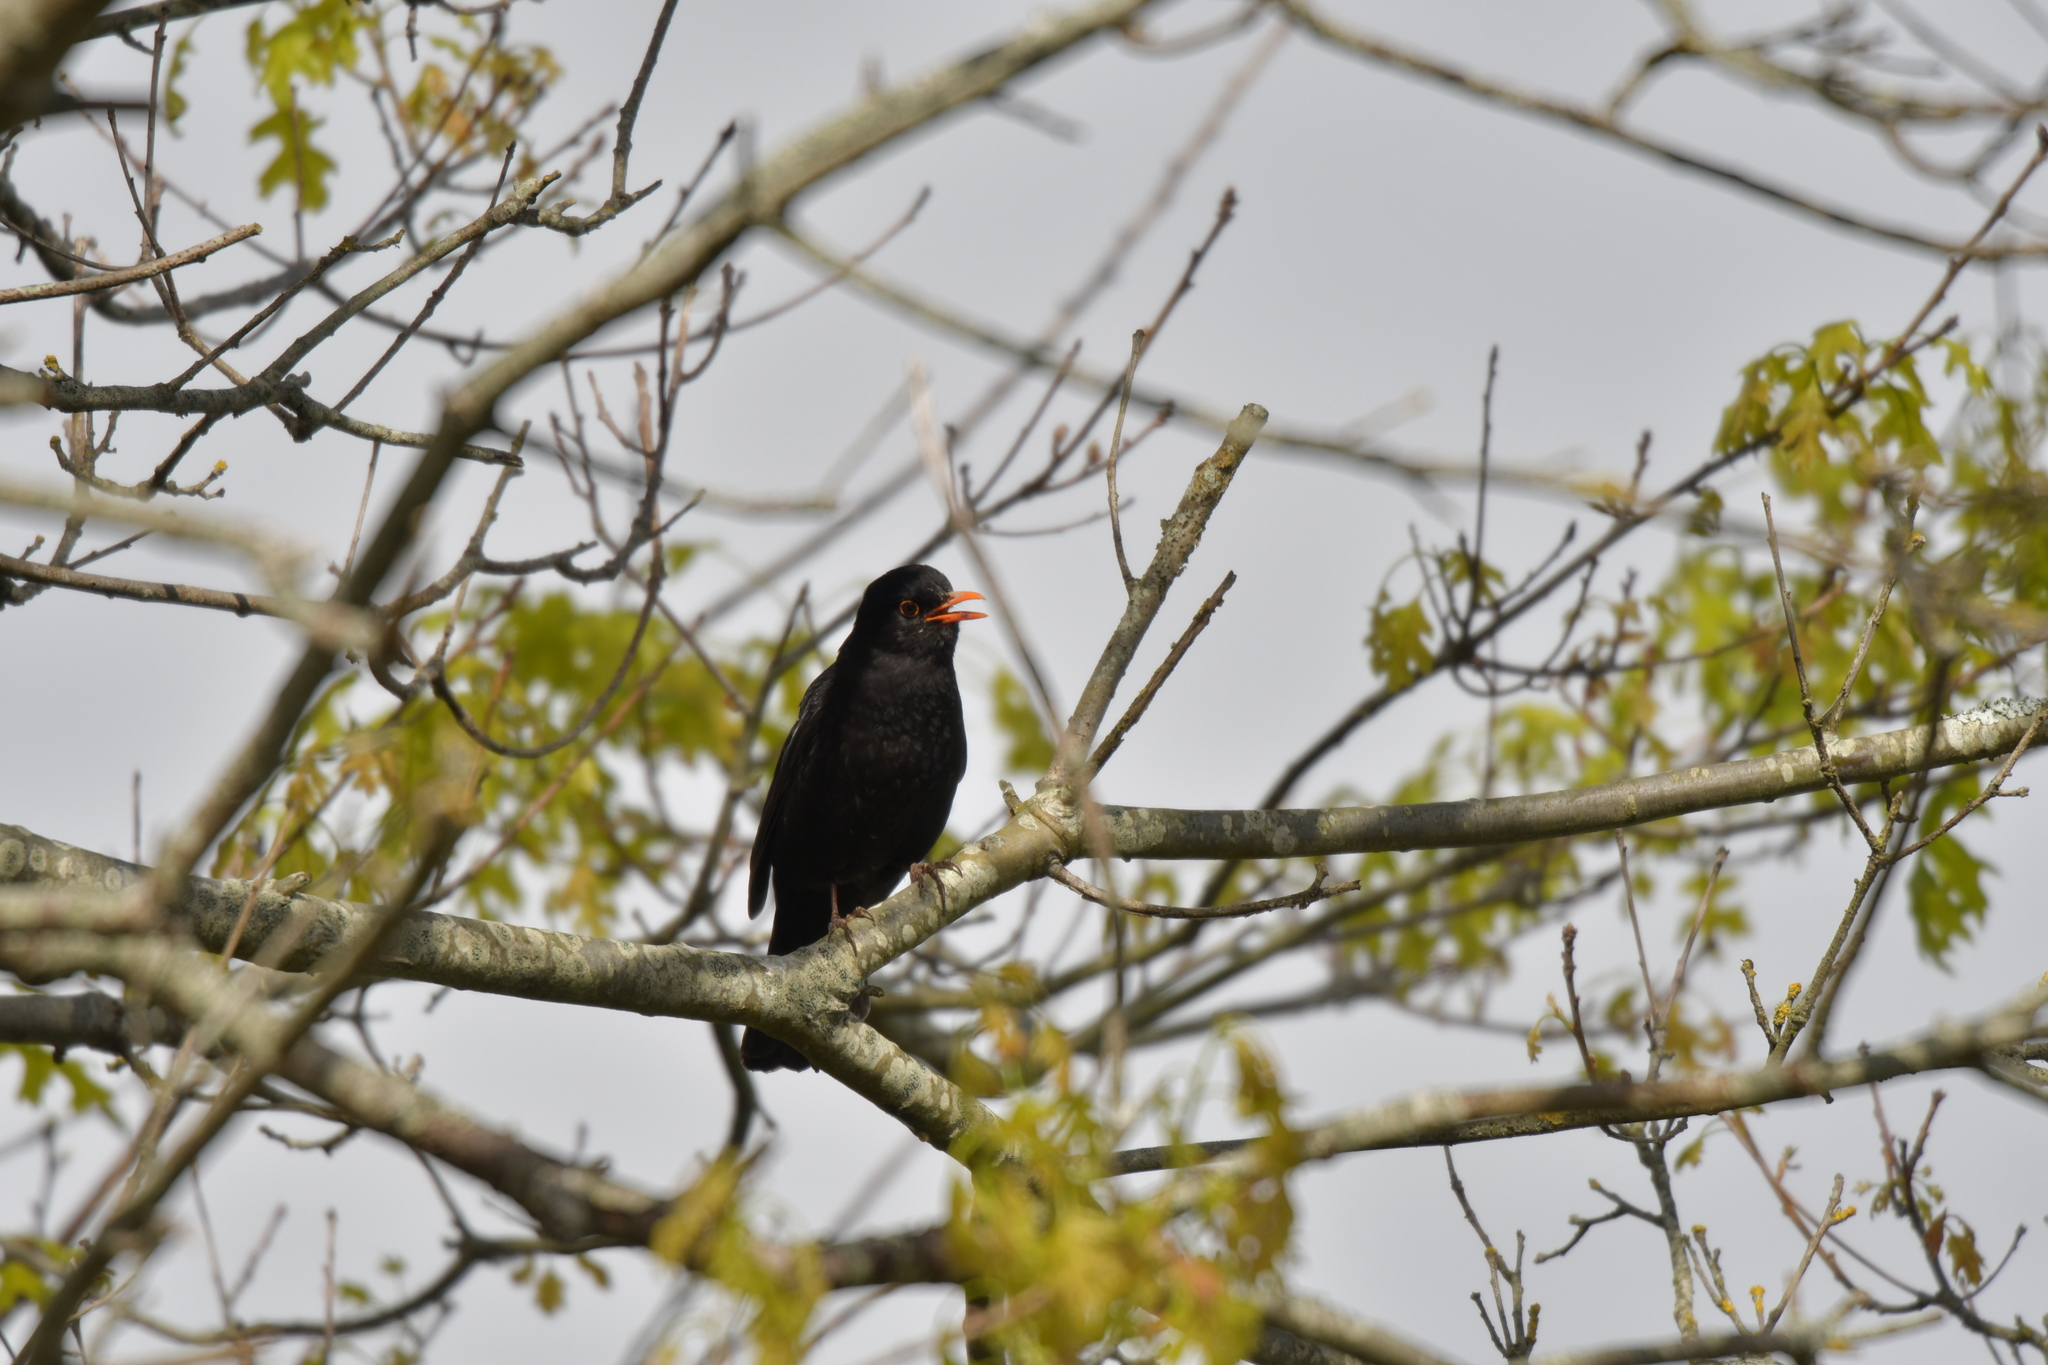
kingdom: Animalia
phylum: Chordata
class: Aves
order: Passeriformes
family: Turdidae
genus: Turdus
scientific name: Turdus merula
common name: Common blackbird
